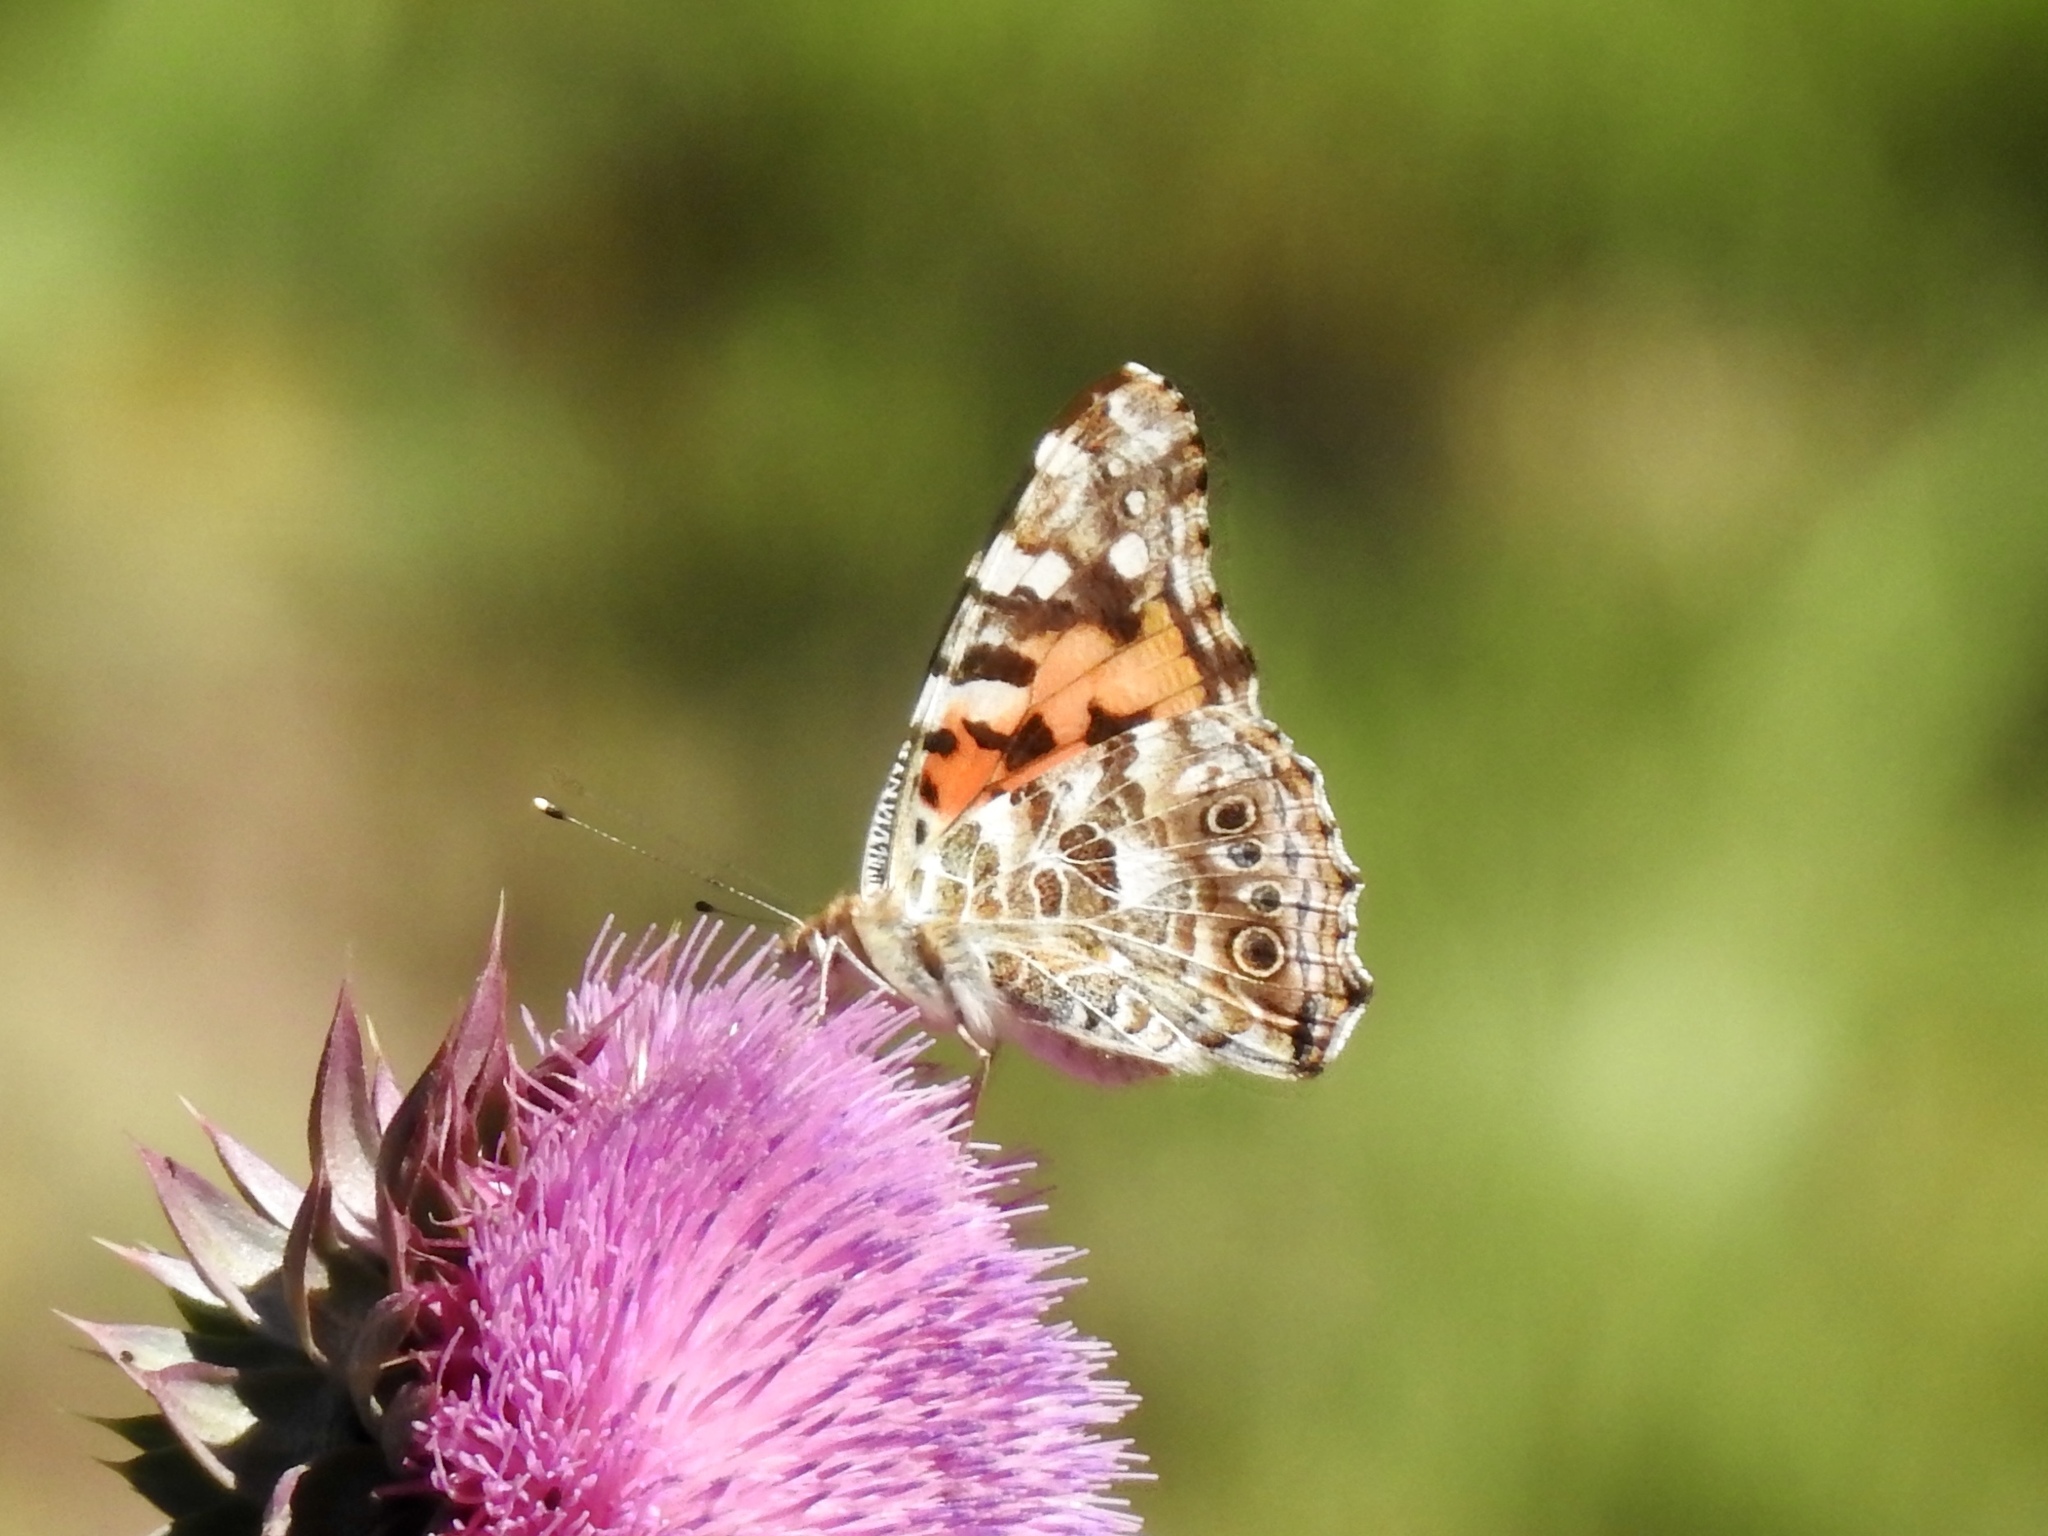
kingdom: Animalia
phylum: Arthropoda
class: Insecta
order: Lepidoptera
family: Nymphalidae
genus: Vanessa
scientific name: Vanessa cardui
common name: Painted lady
